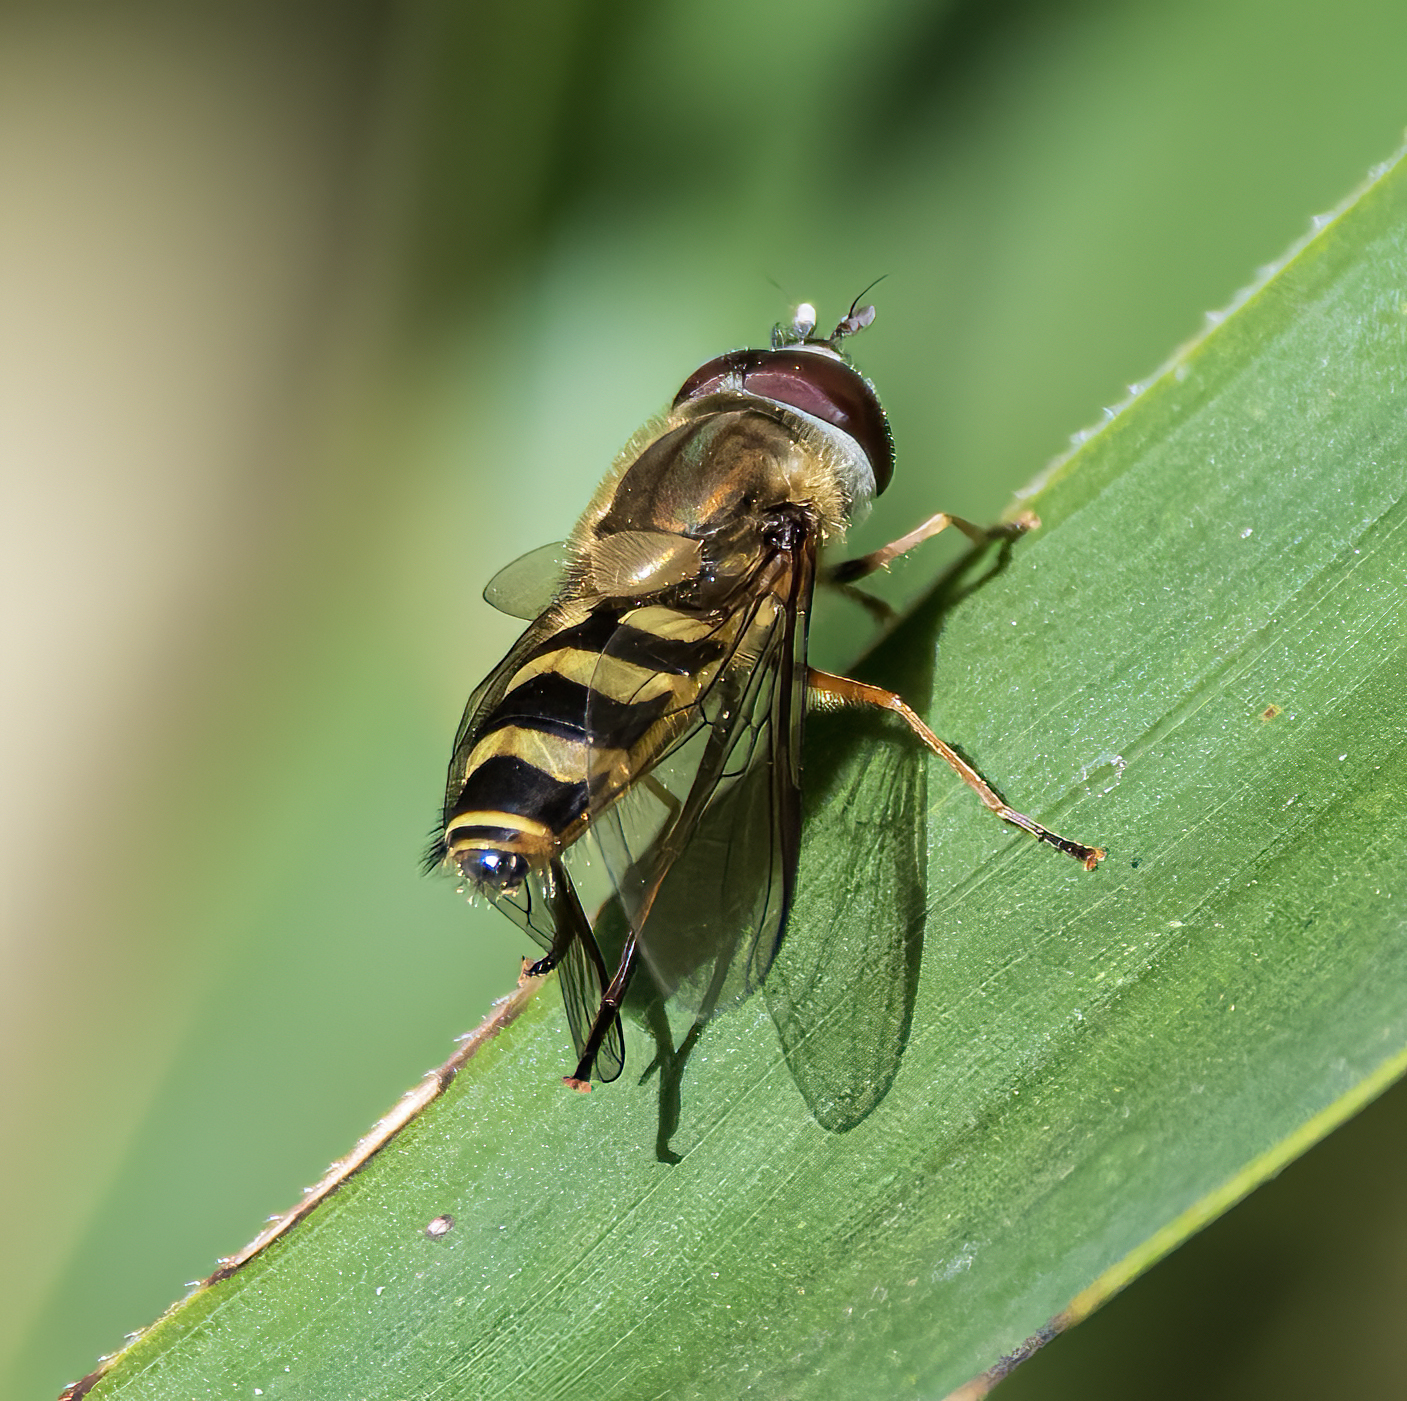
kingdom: Animalia
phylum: Arthropoda
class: Insecta
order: Diptera
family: Syrphidae
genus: Syrphus
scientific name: Syrphus torvus
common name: Hairy-eyed flower fly
